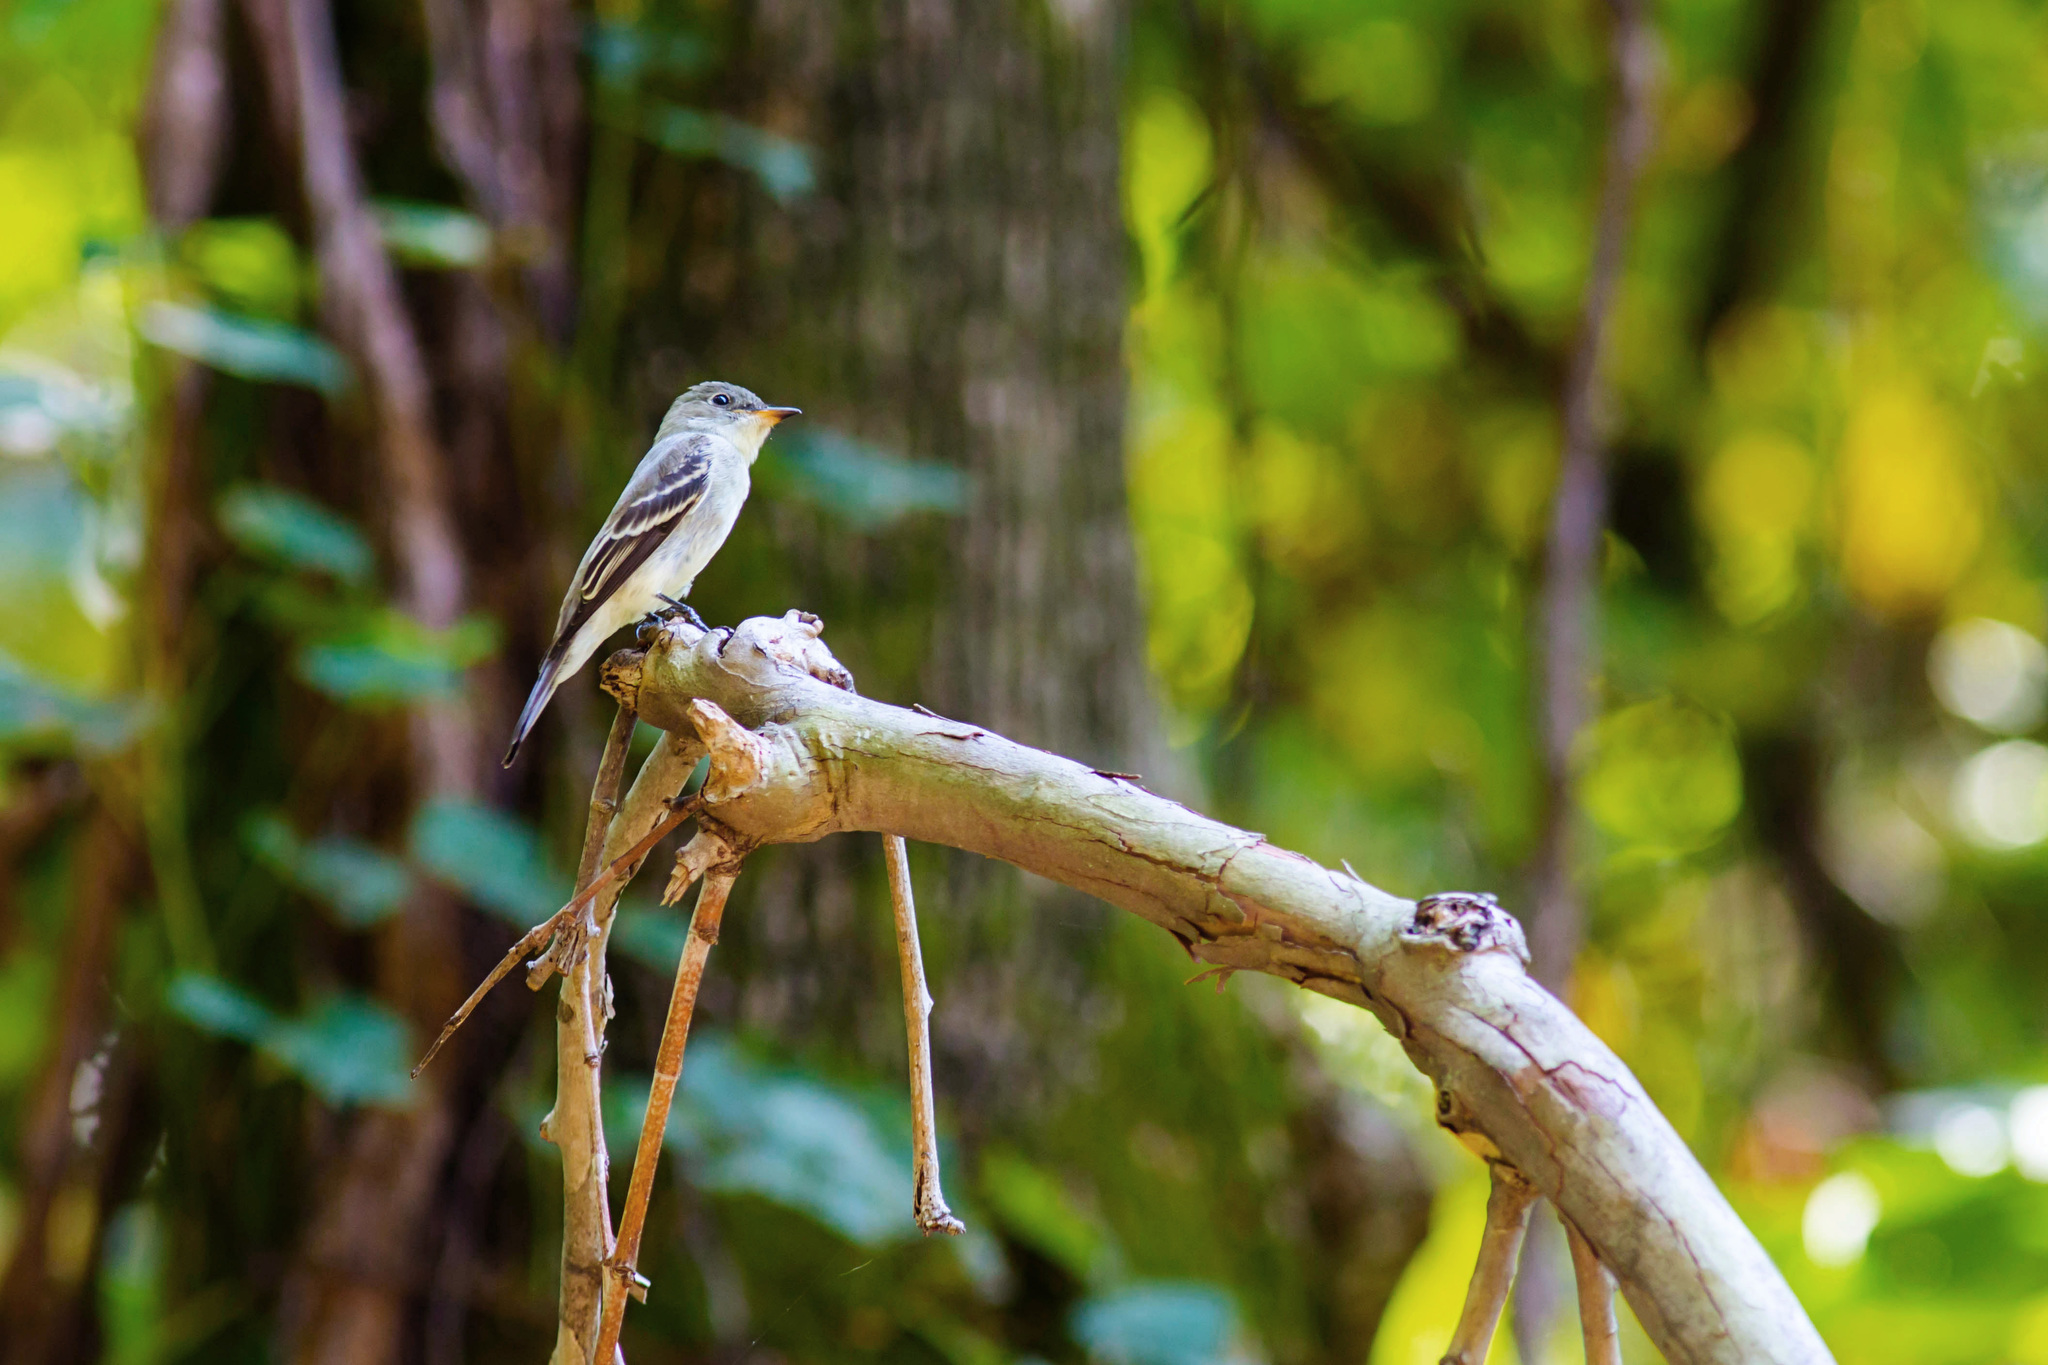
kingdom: Animalia
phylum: Chordata
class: Aves
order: Passeriformes
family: Tyrannidae
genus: Contopus
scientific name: Contopus virens
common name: Eastern wood-pewee
